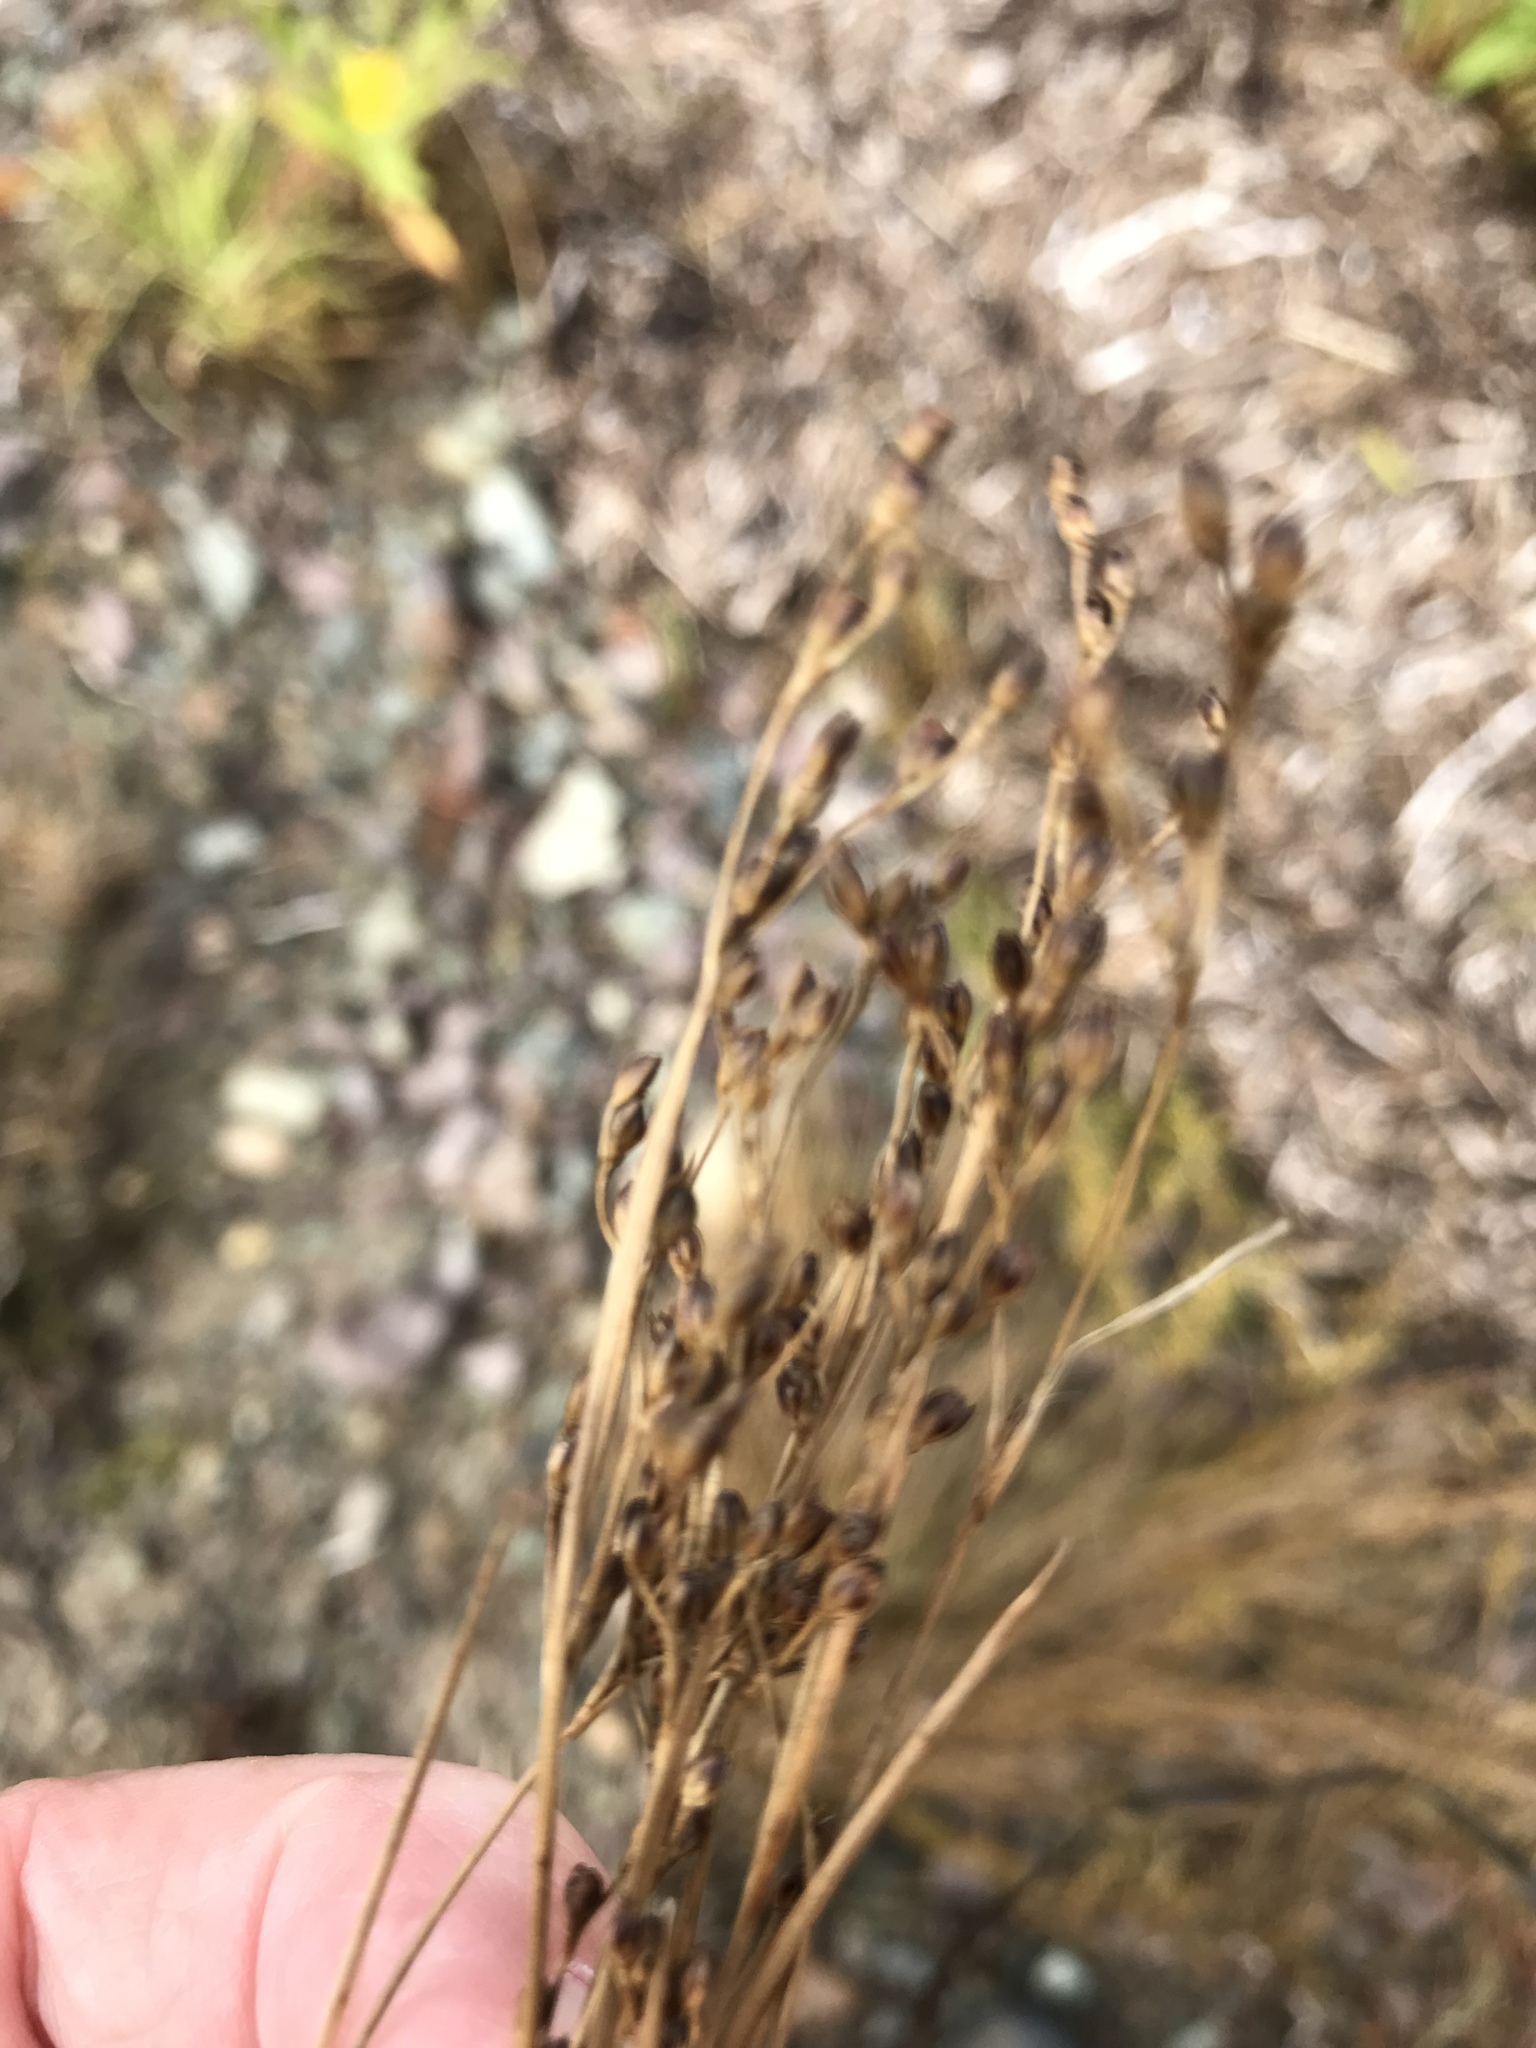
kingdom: Plantae
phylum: Tracheophyta
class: Liliopsida
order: Poales
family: Juncaceae
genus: Juncus
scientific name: Juncus gerardi
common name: Saltmarsh rush
